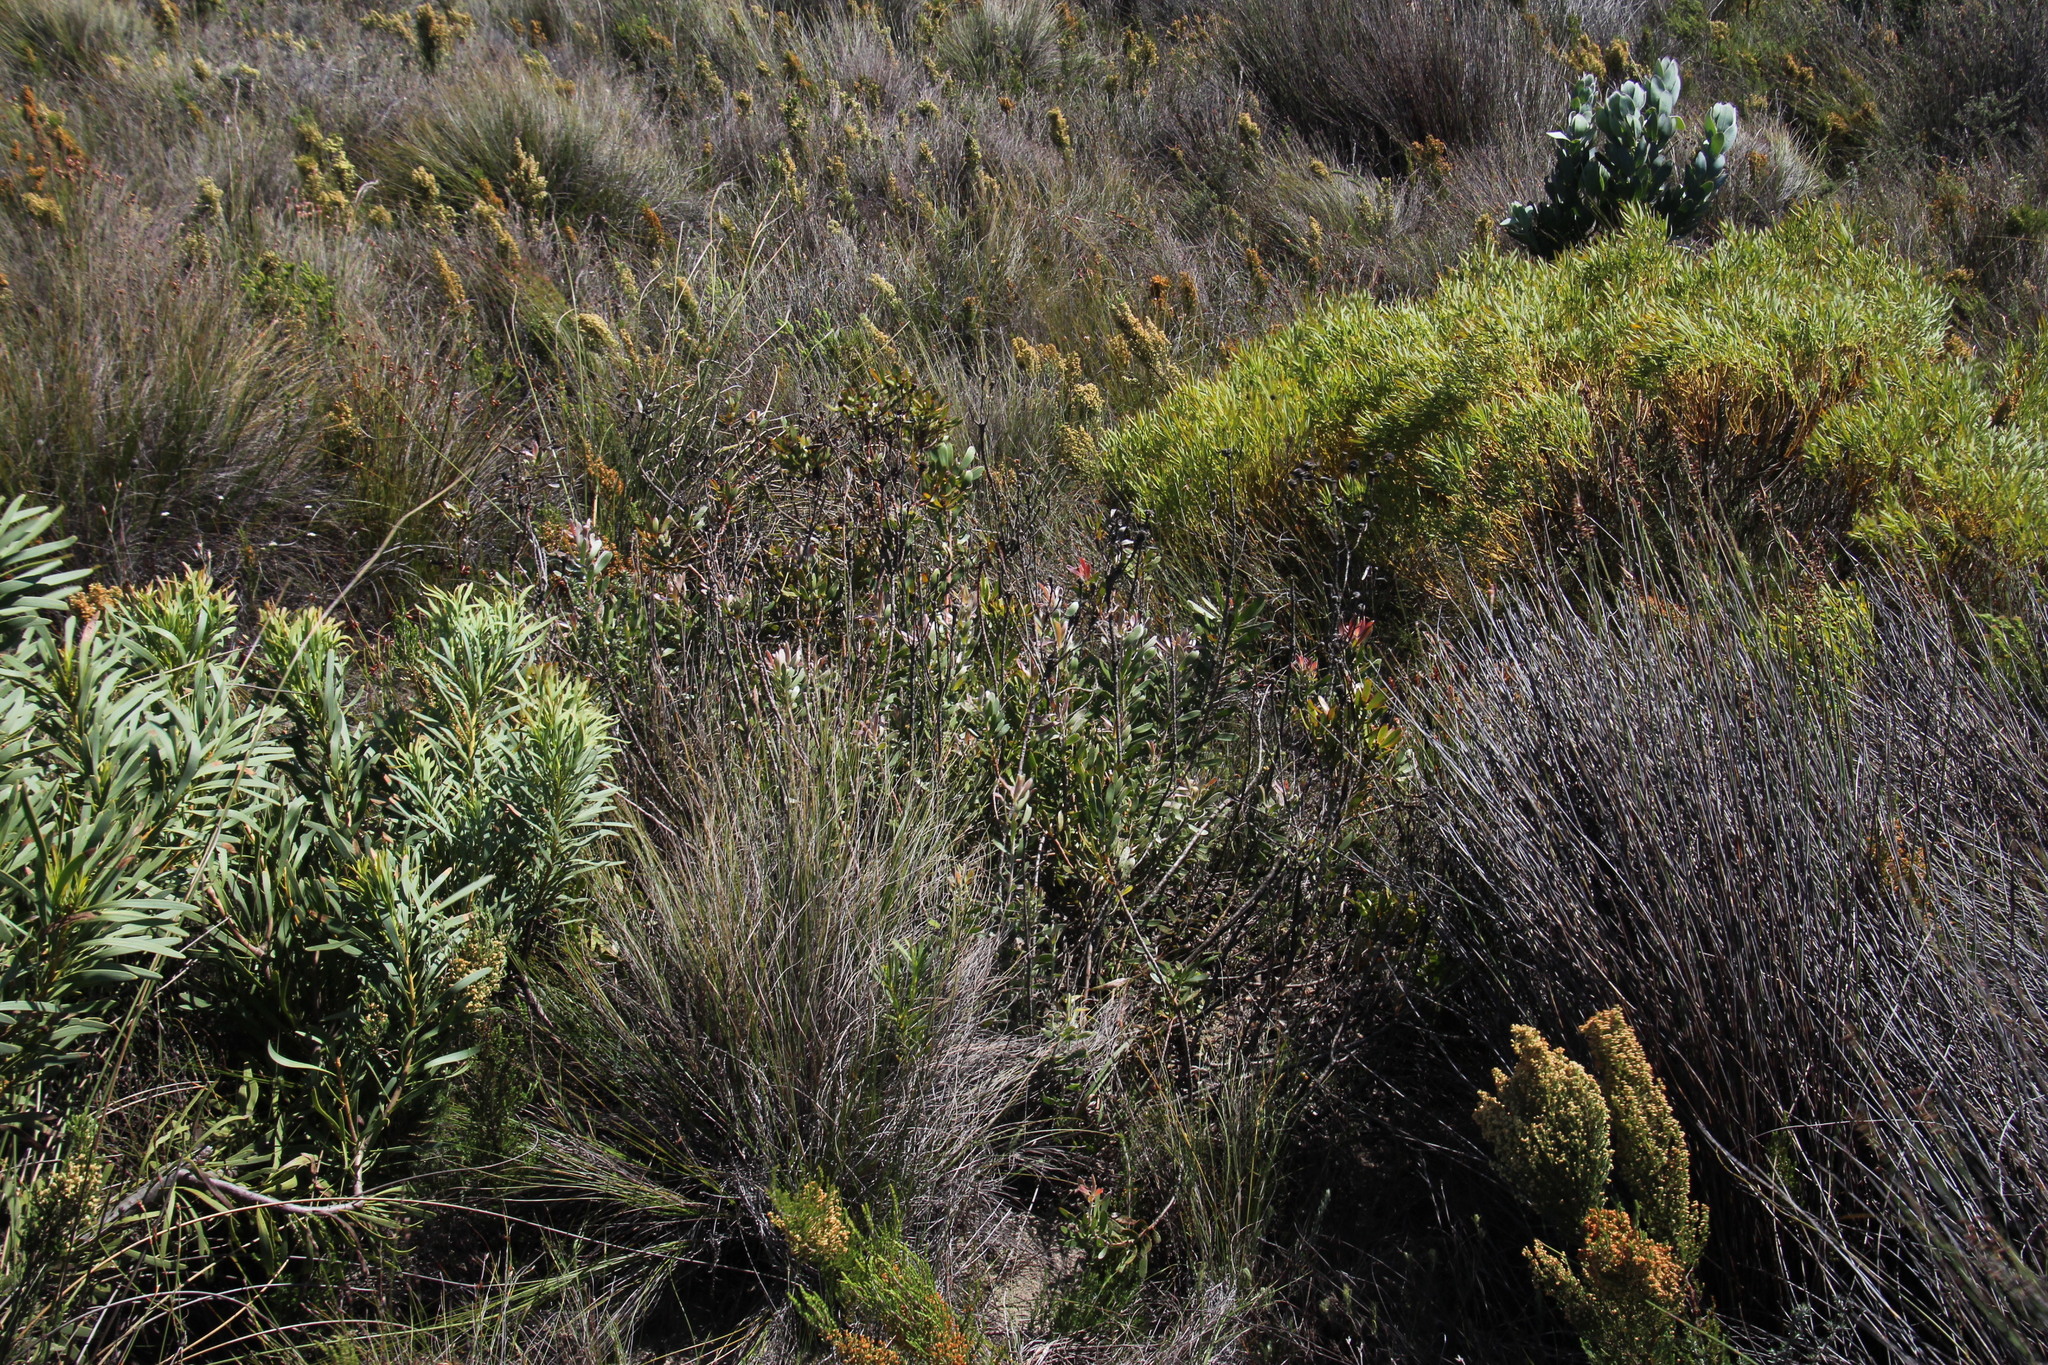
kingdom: Plantae
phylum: Tracheophyta
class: Magnoliopsida
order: Proteales
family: Proteaceae
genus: Leucadendron
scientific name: Leucadendron spissifolium
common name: Spear-leaf conebush
